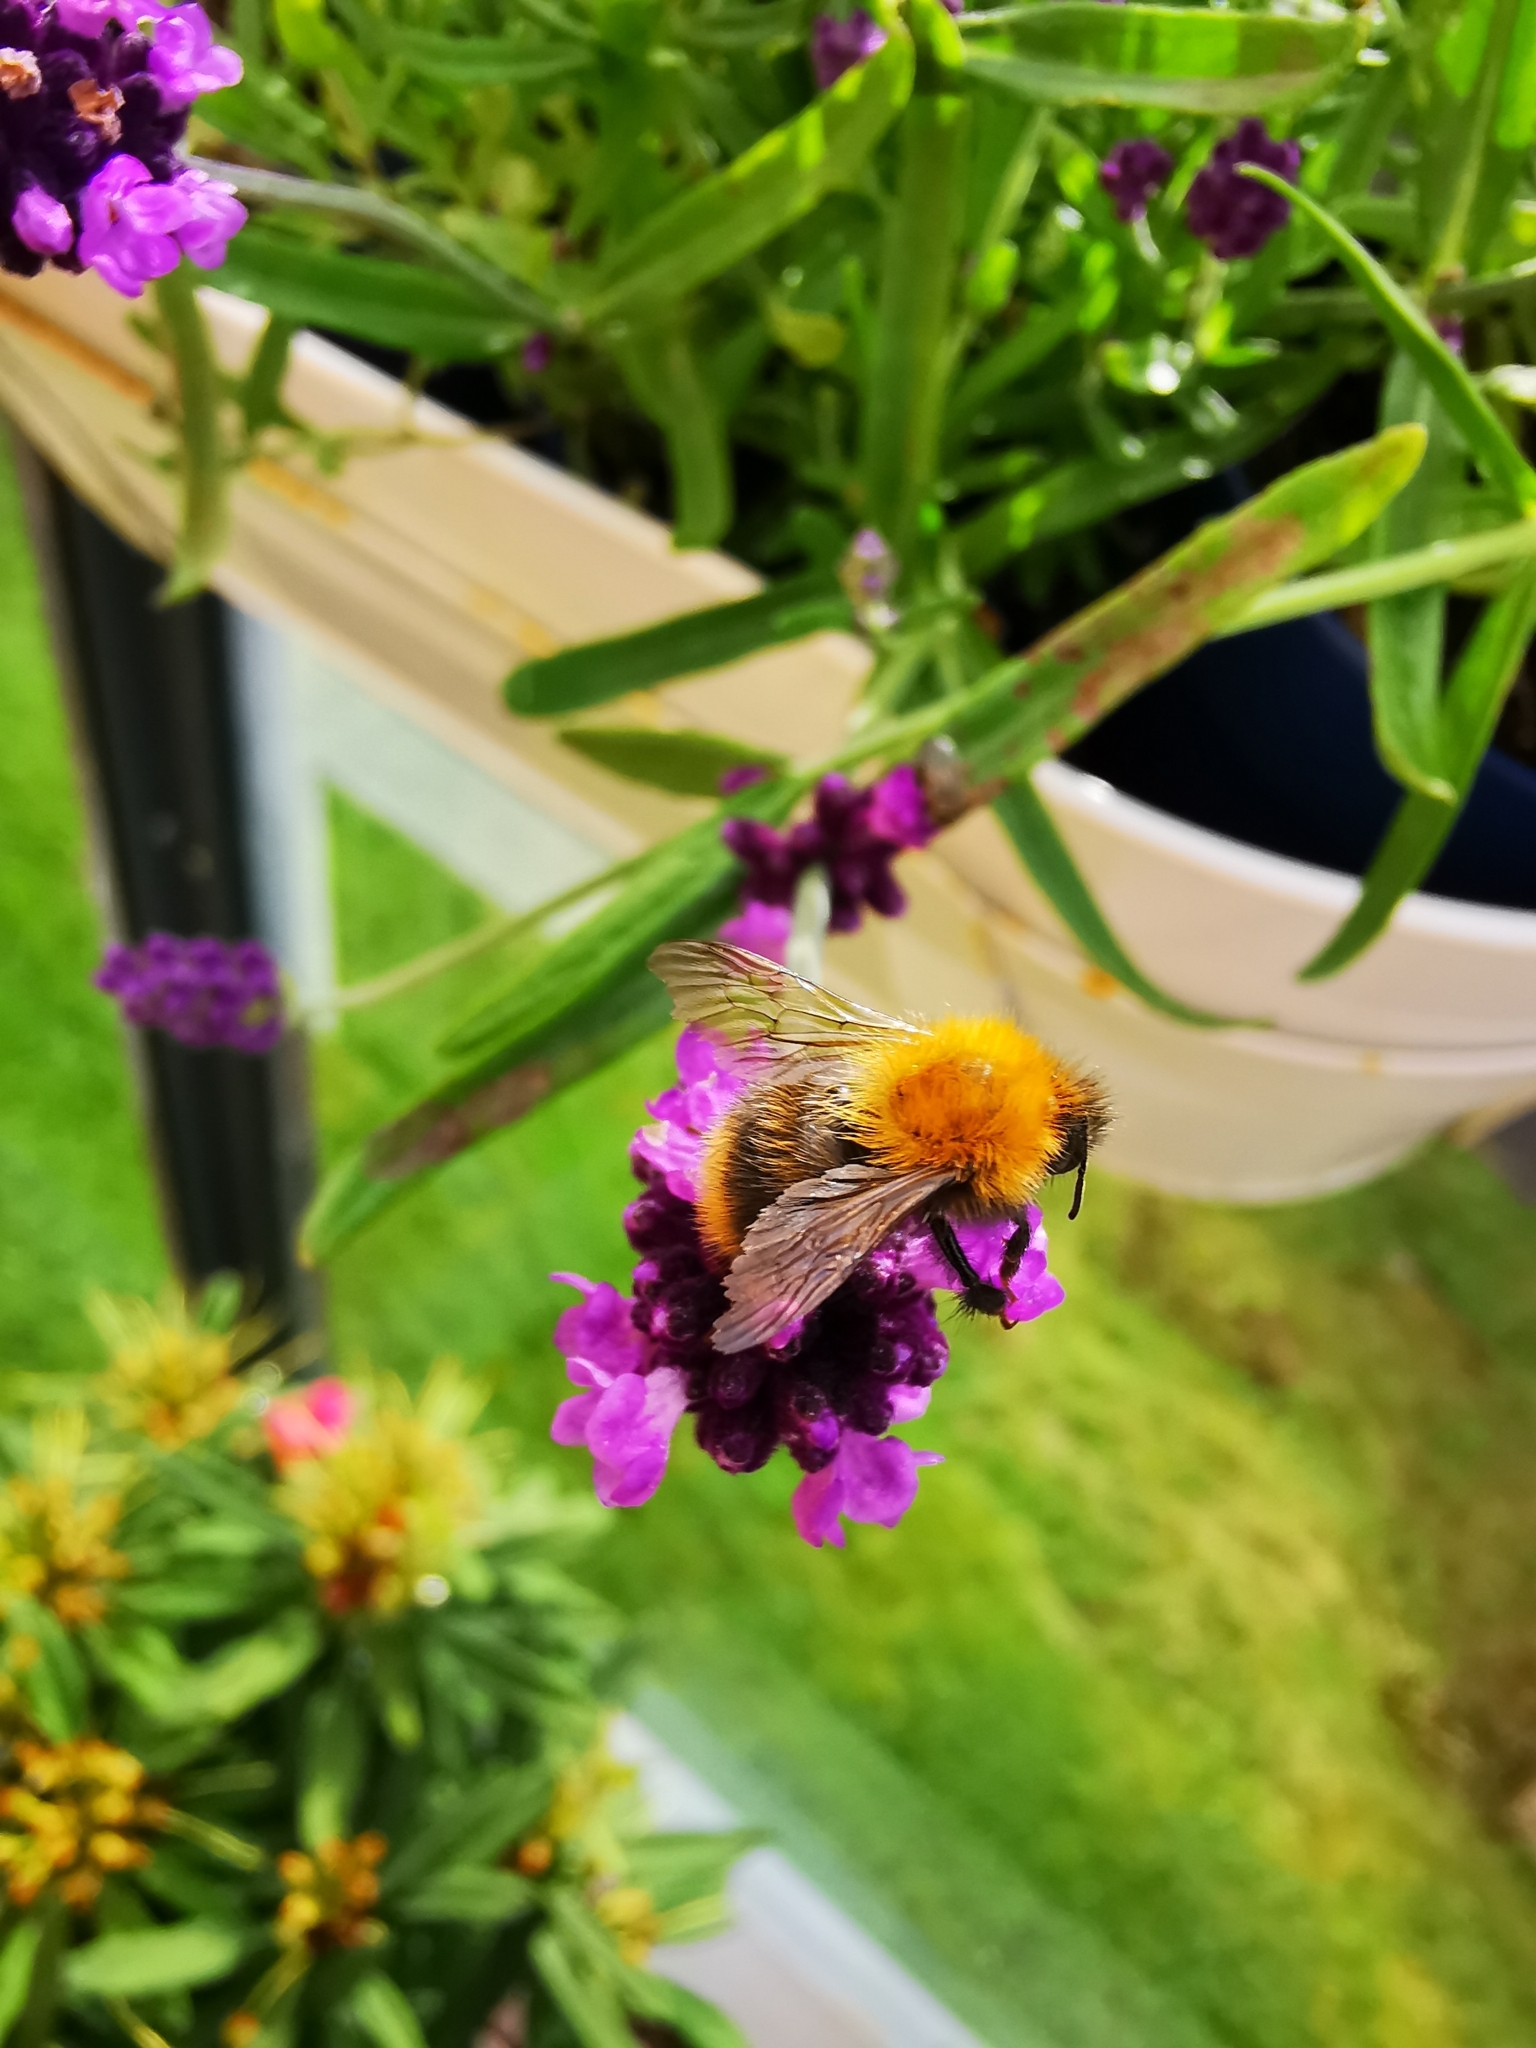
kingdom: Animalia
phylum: Arthropoda
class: Insecta
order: Hymenoptera
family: Apidae
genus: Bombus
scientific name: Bombus pascuorum
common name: Common carder bee
